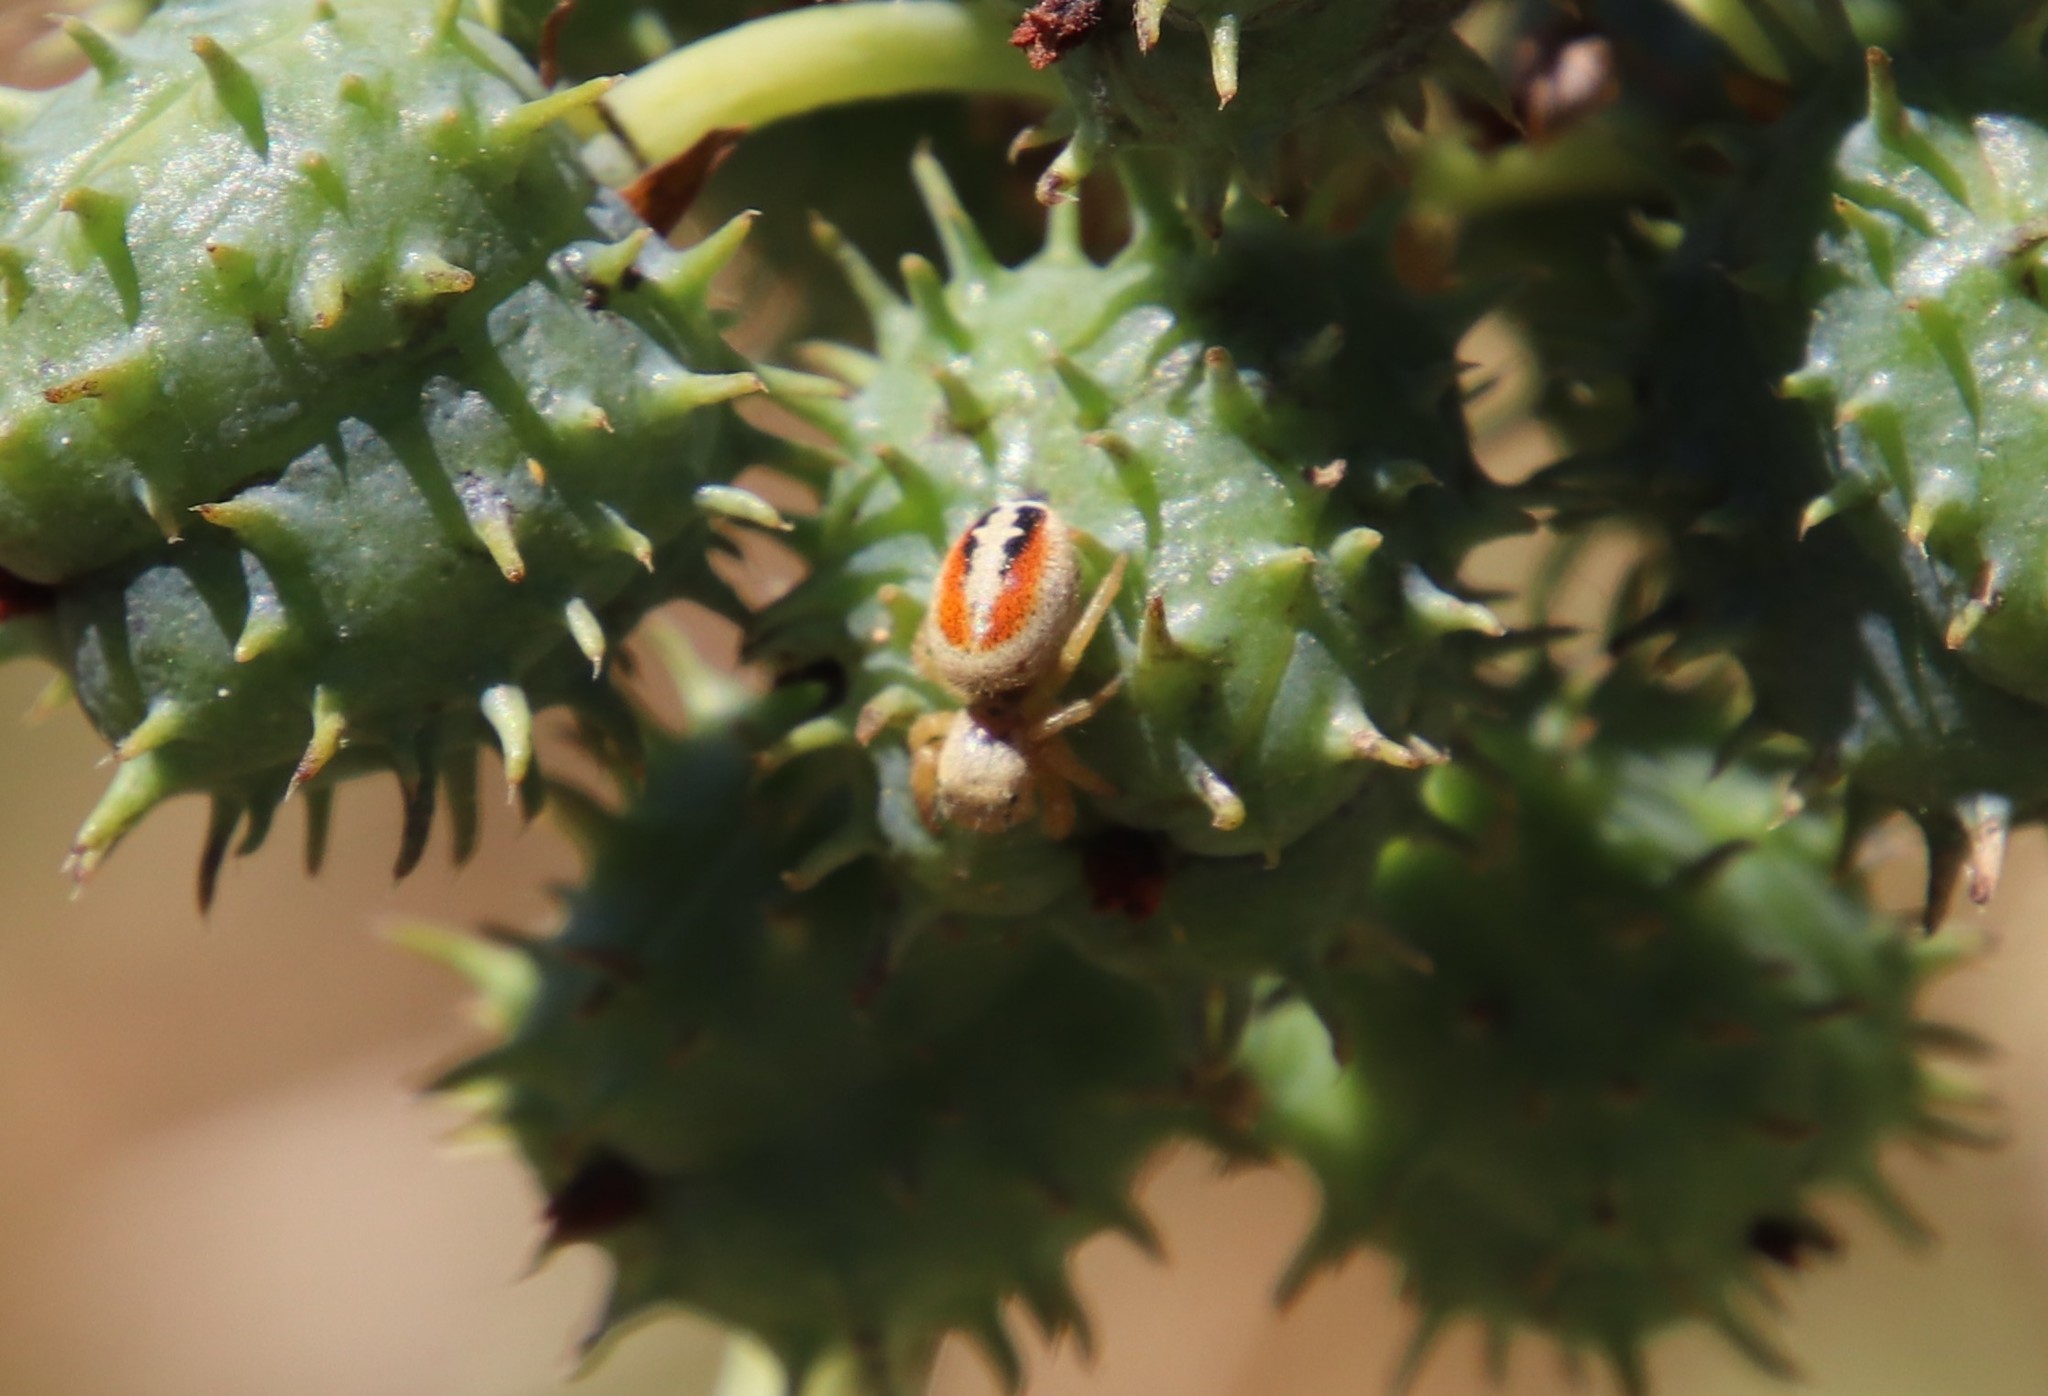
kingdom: Animalia
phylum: Arthropoda
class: Arachnida
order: Araneae
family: Salticidae
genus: Phidippus
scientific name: Phidippus nikites
